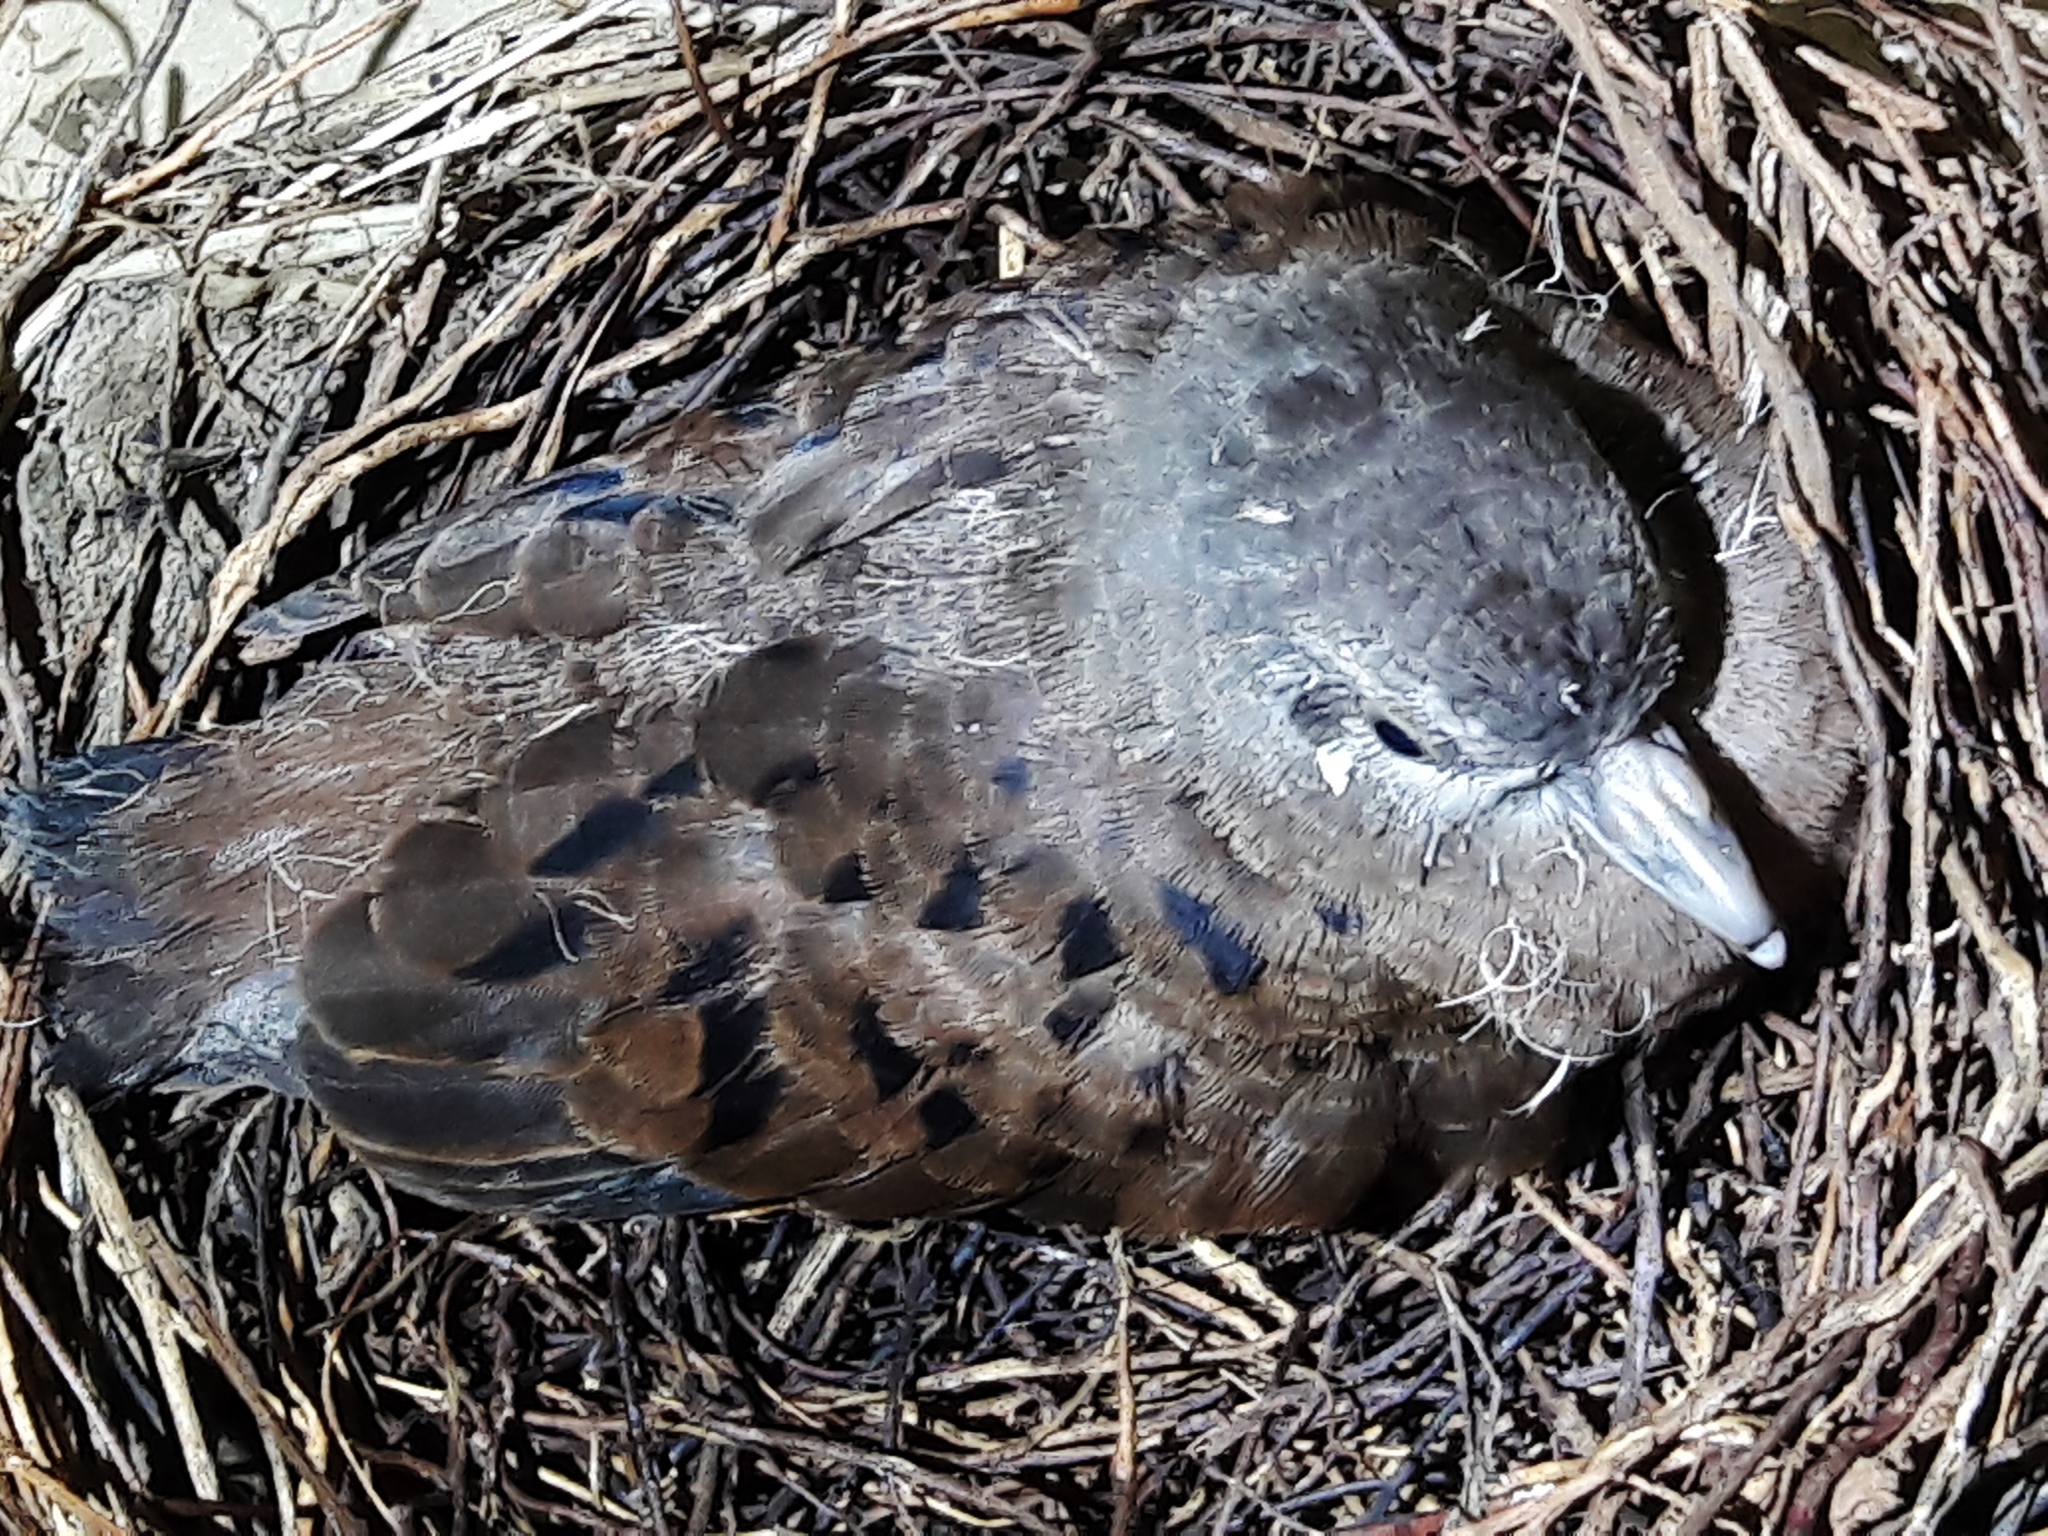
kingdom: Animalia
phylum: Chordata
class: Aves
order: Columbiformes
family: Columbidae
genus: Columbina
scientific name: Columbina talpacoti
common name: Ruddy ground dove
